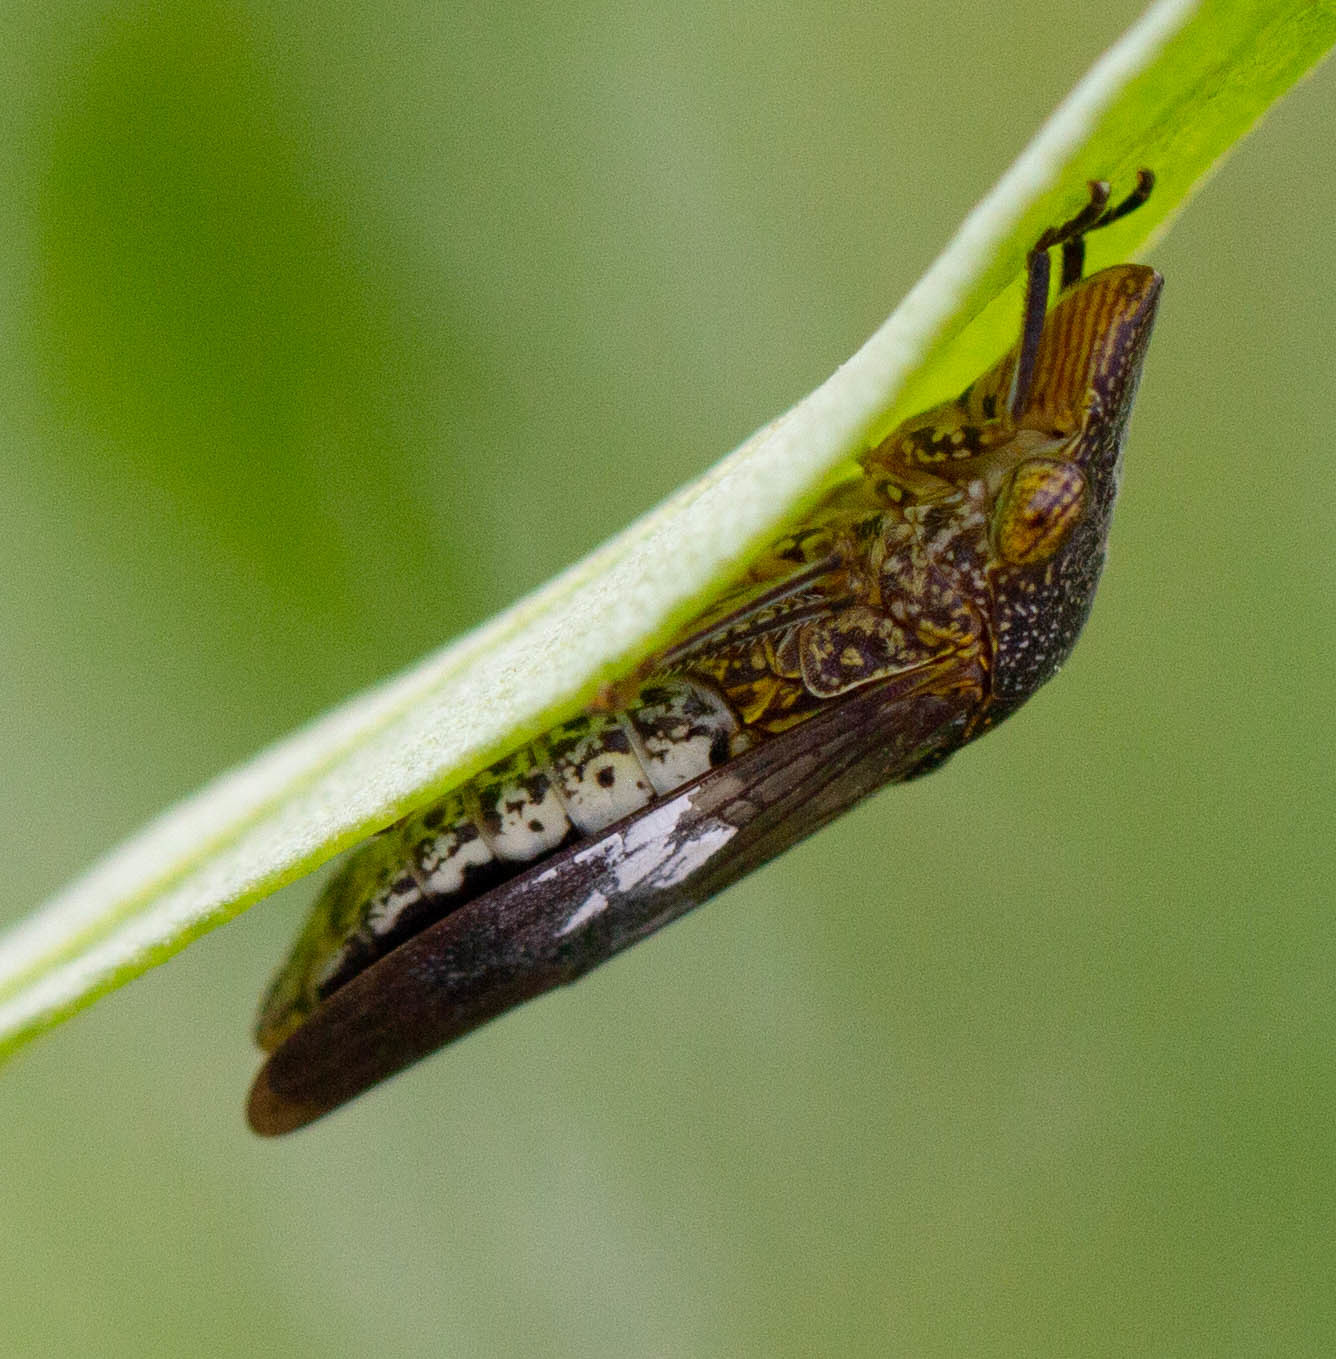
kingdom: Animalia
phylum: Arthropoda
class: Insecta
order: Hemiptera
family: Cicadellidae
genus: Homalodisca
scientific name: Homalodisca vitripennis
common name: Glassy-winged sharpshooter
